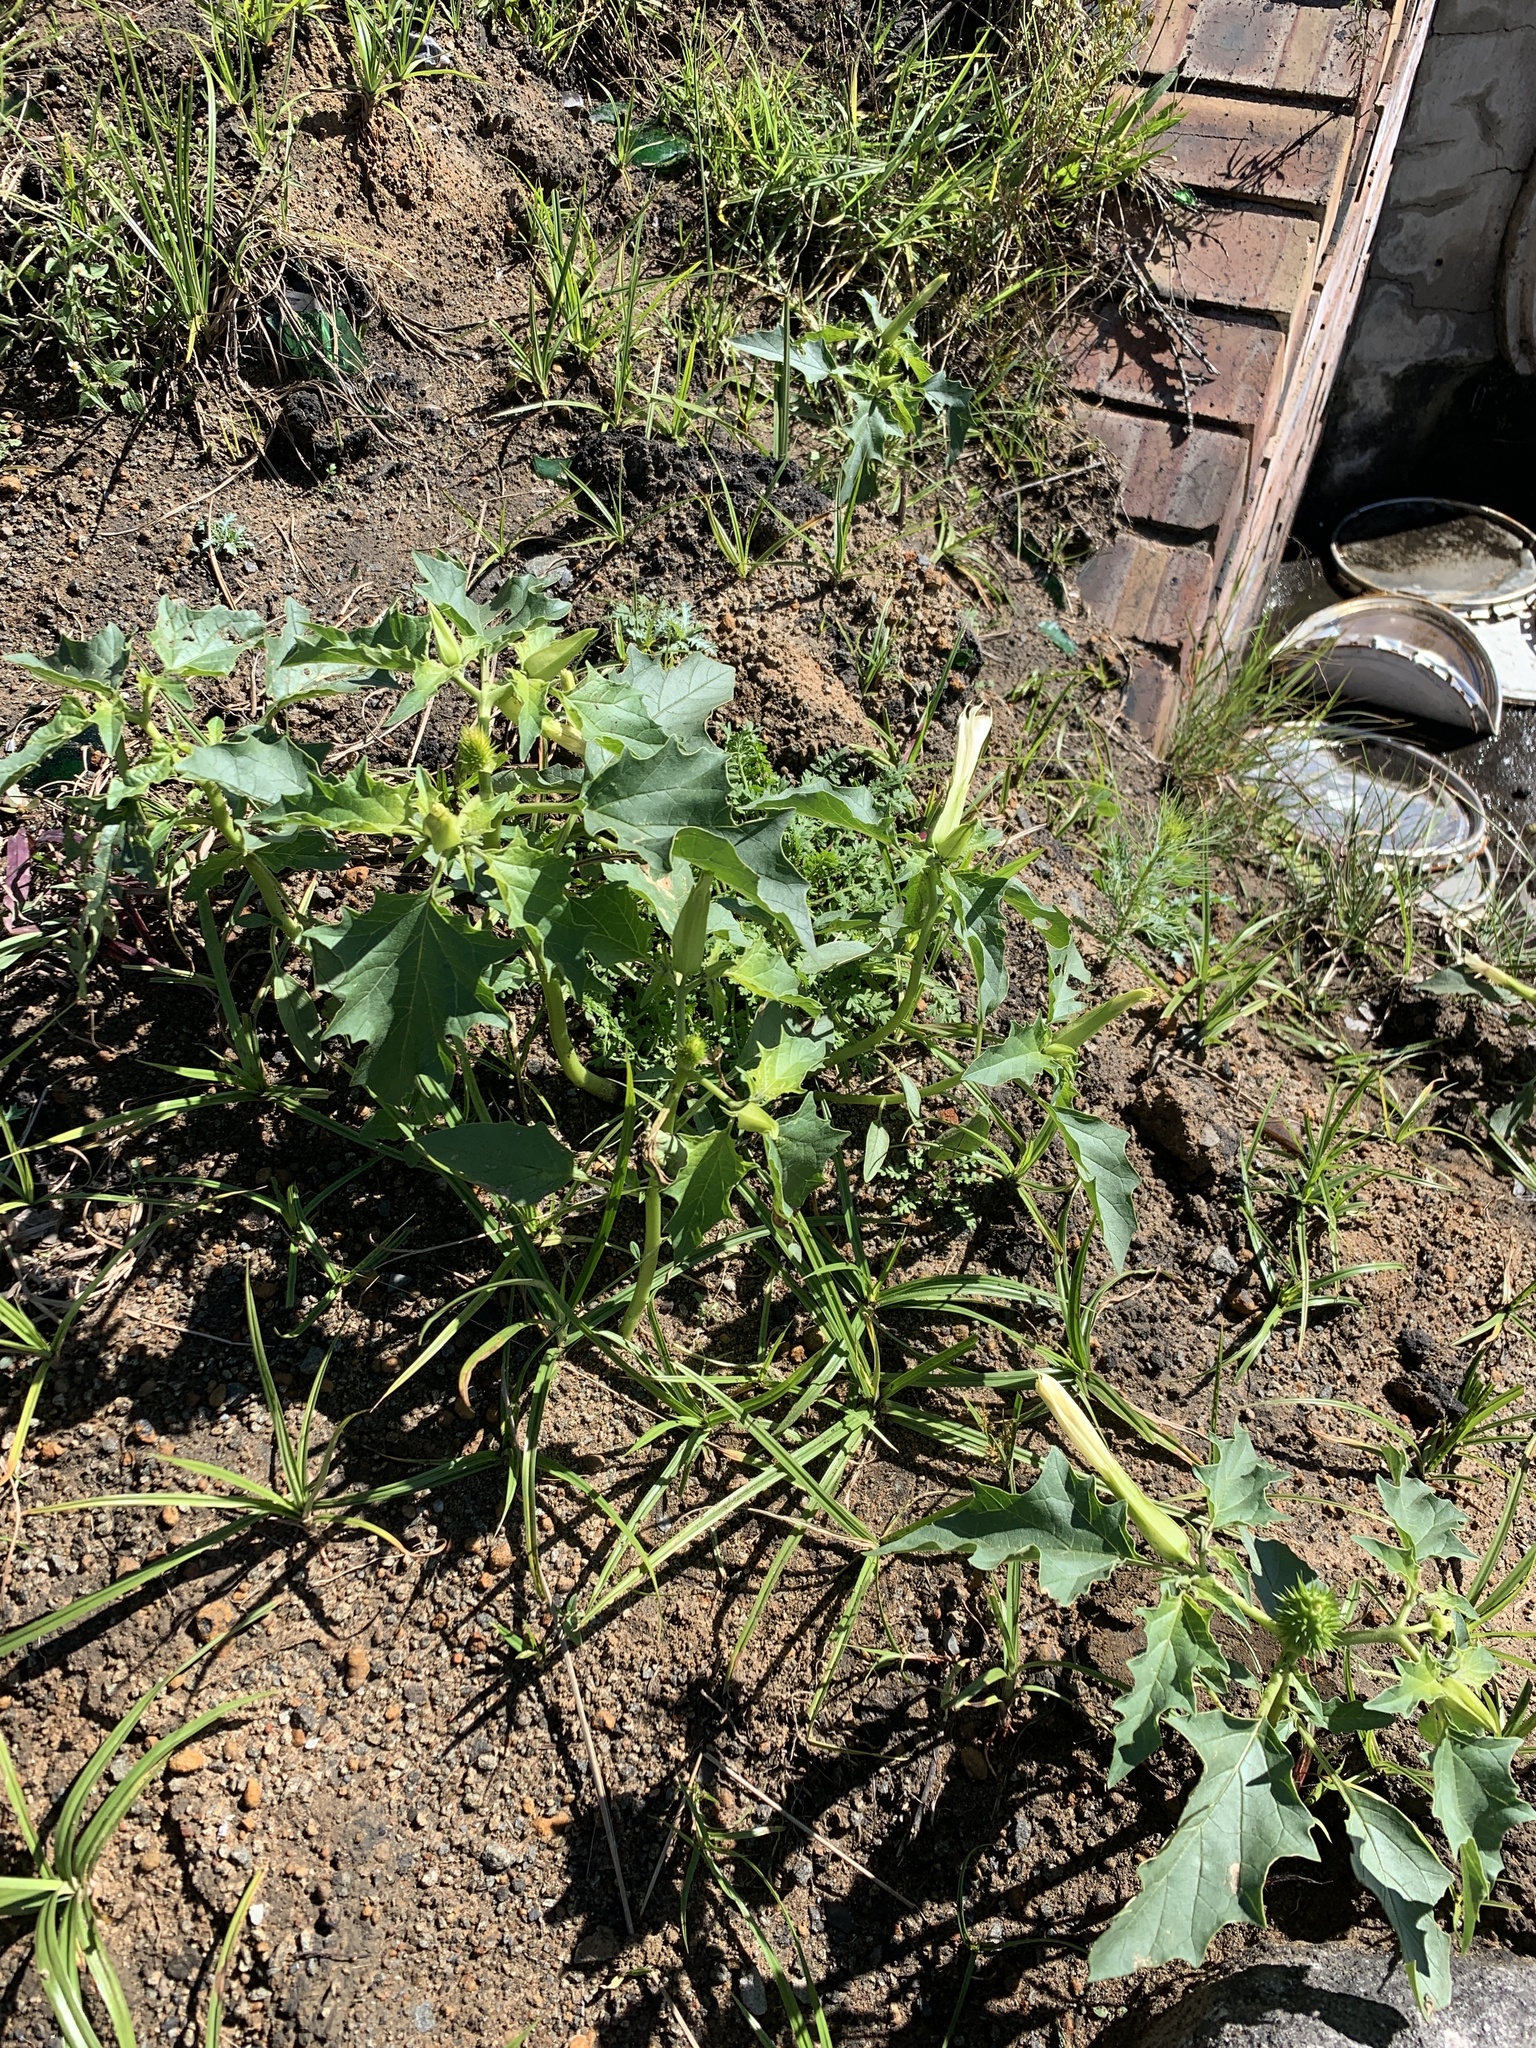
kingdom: Plantae
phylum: Tracheophyta
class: Magnoliopsida
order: Solanales
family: Solanaceae
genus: Datura
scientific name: Datura stramonium
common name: Thorn-apple
